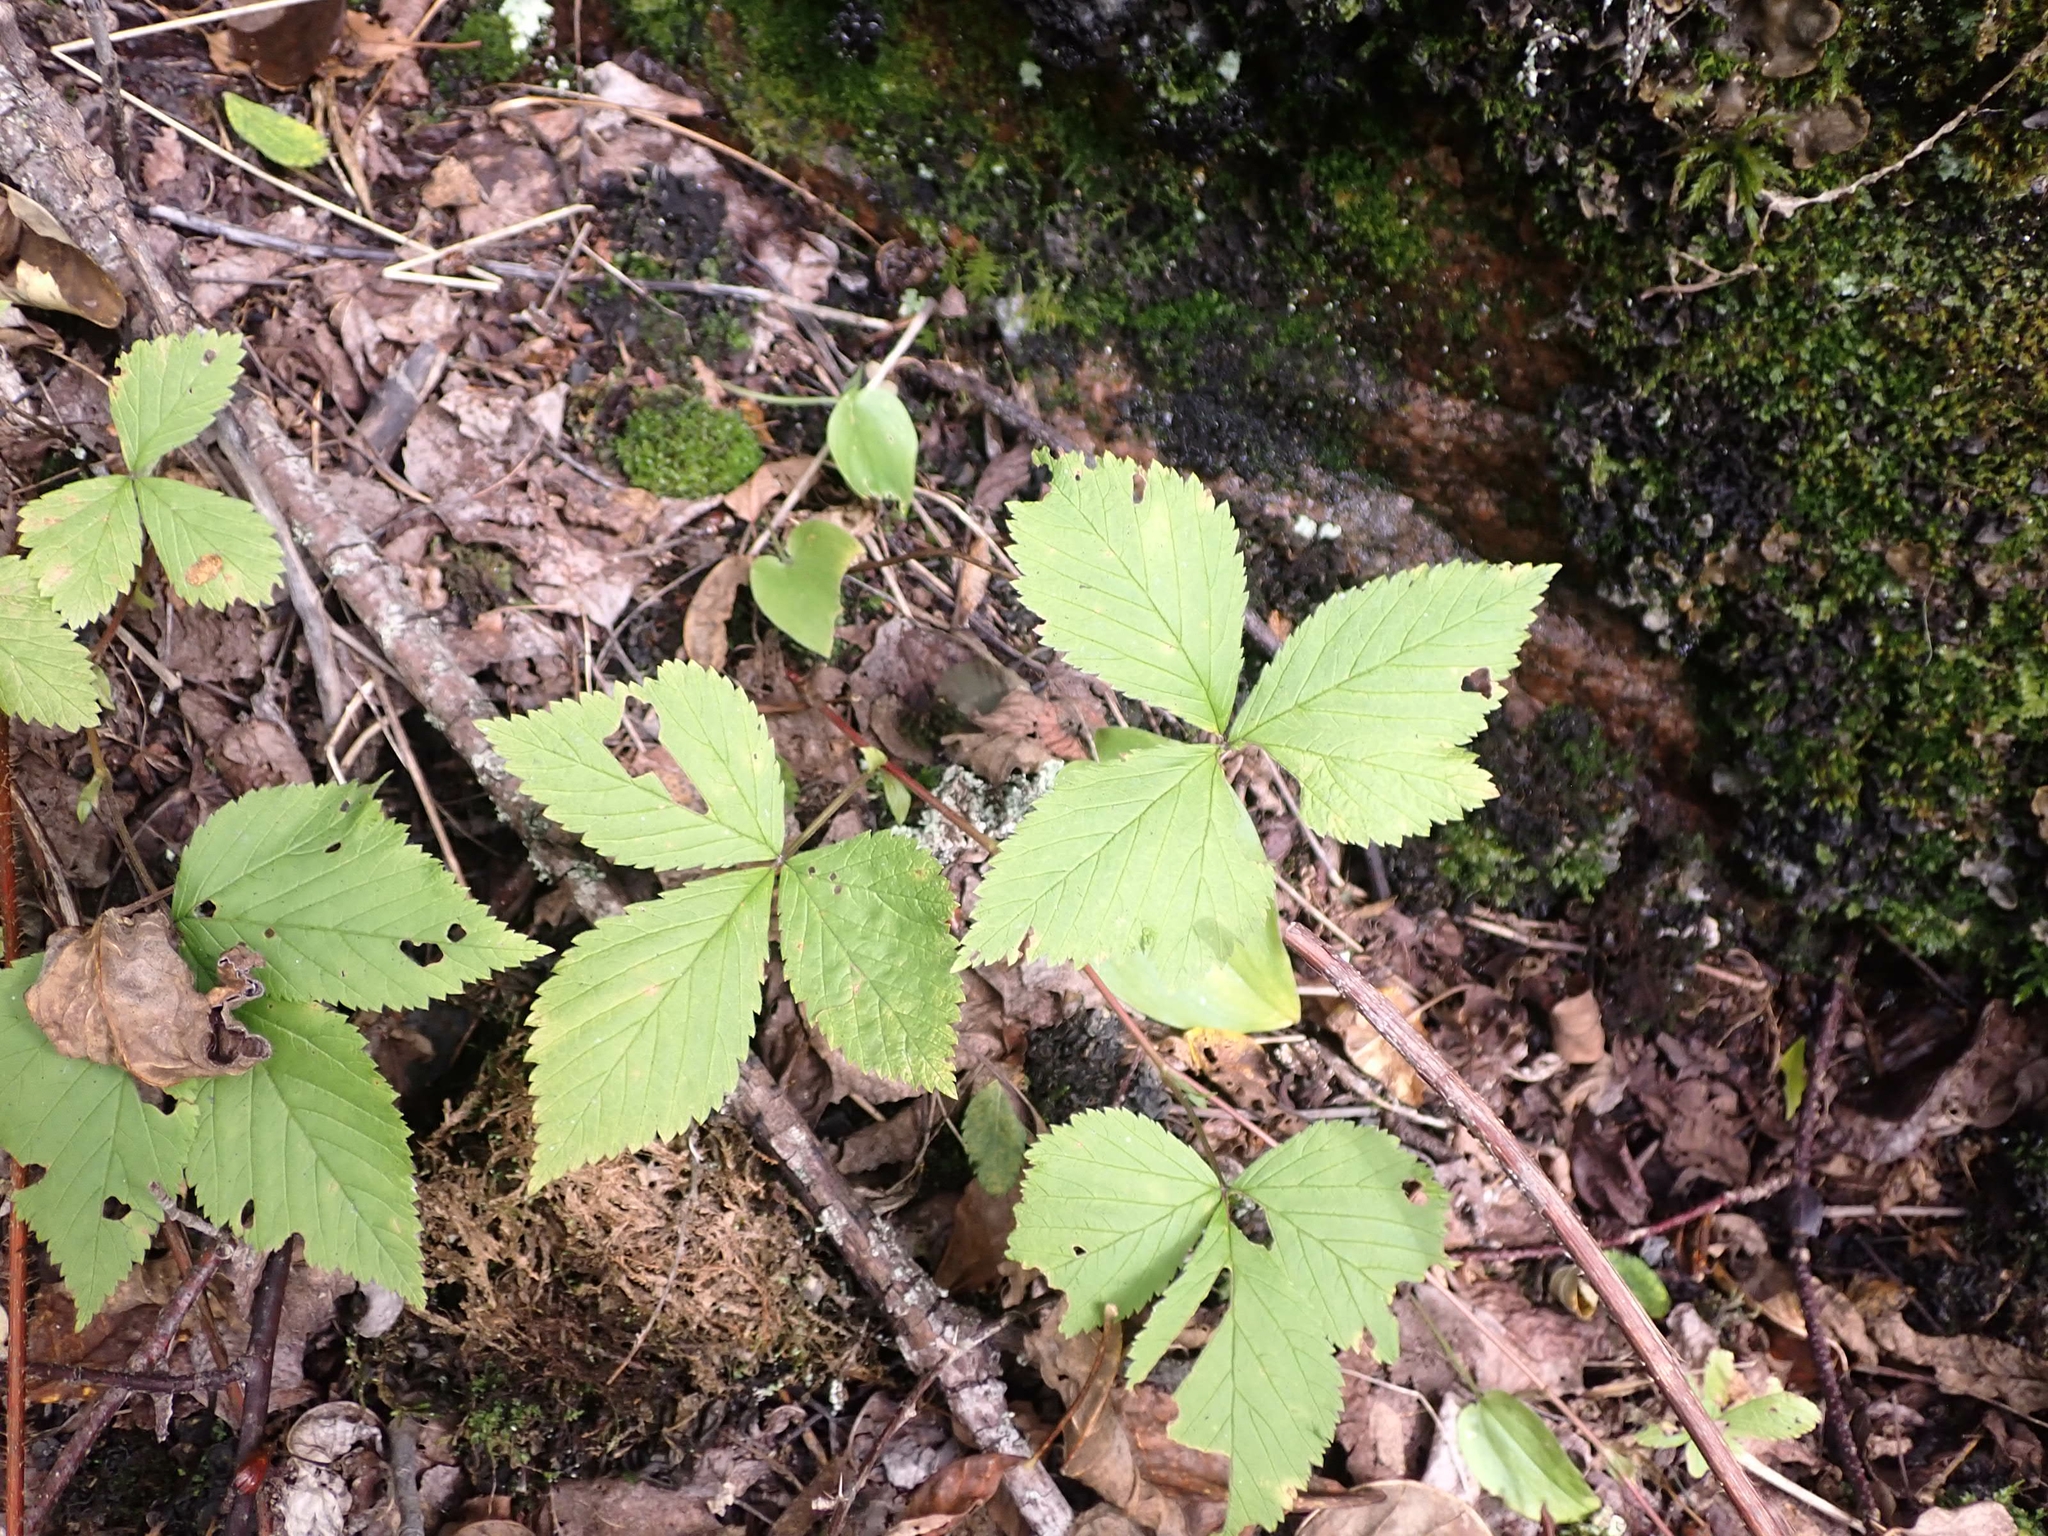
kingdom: Plantae
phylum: Tracheophyta
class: Magnoliopsida
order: Rosales
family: Rosaceae
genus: Rubus
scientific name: Rubus pubescens
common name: Dwarf raspberry
